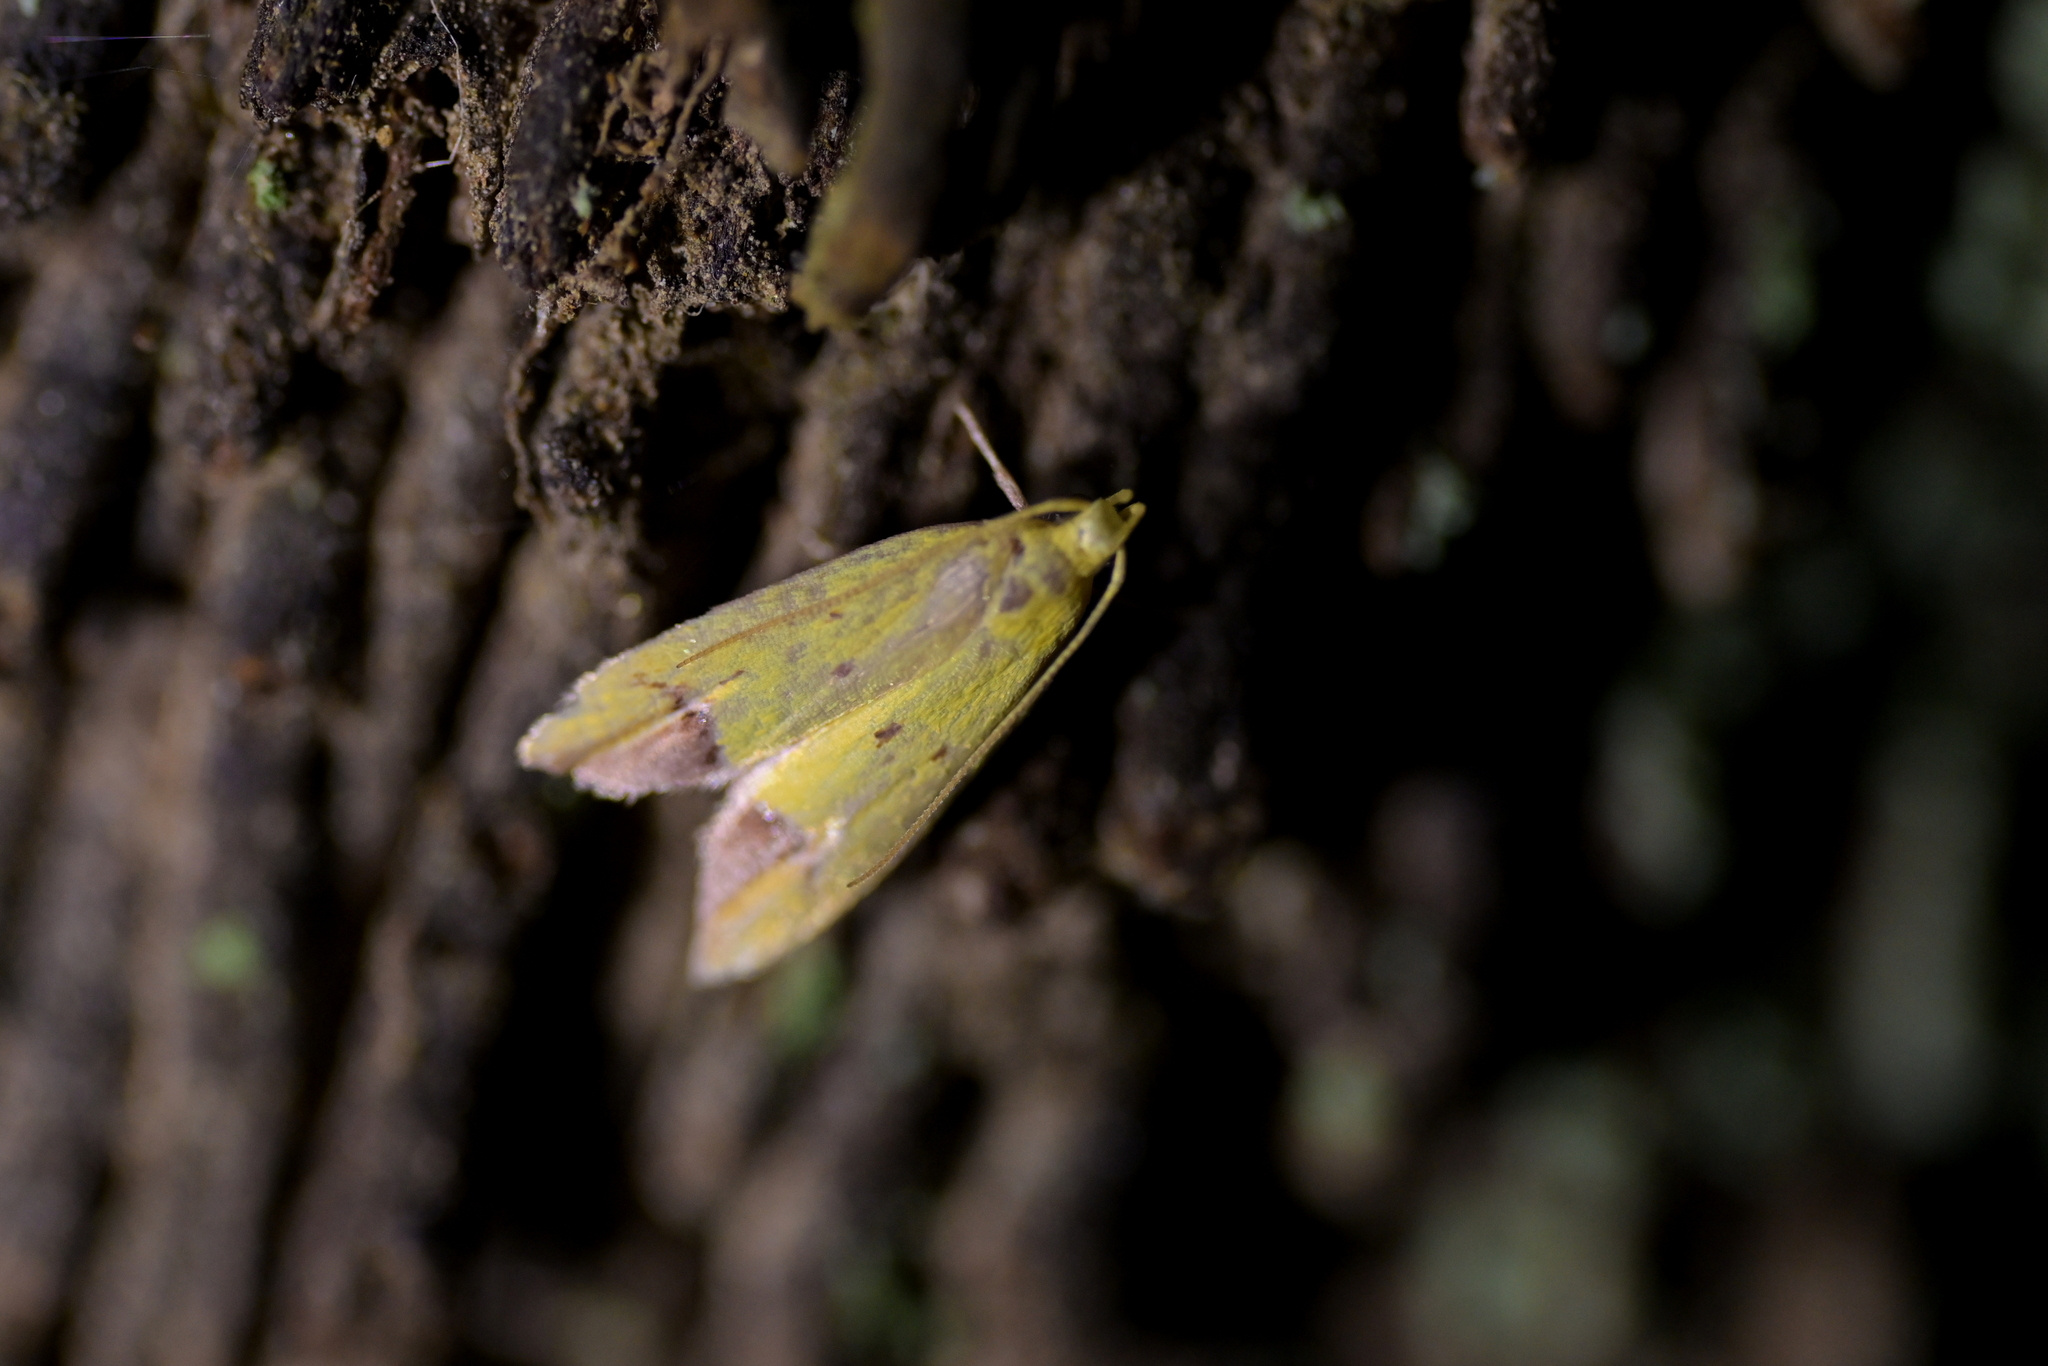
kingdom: Animalia
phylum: Arthropoda
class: Insecta
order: Lepidoptera
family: Oecophoridae
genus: Gymnobathra
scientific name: Gymnobathra flavidella
